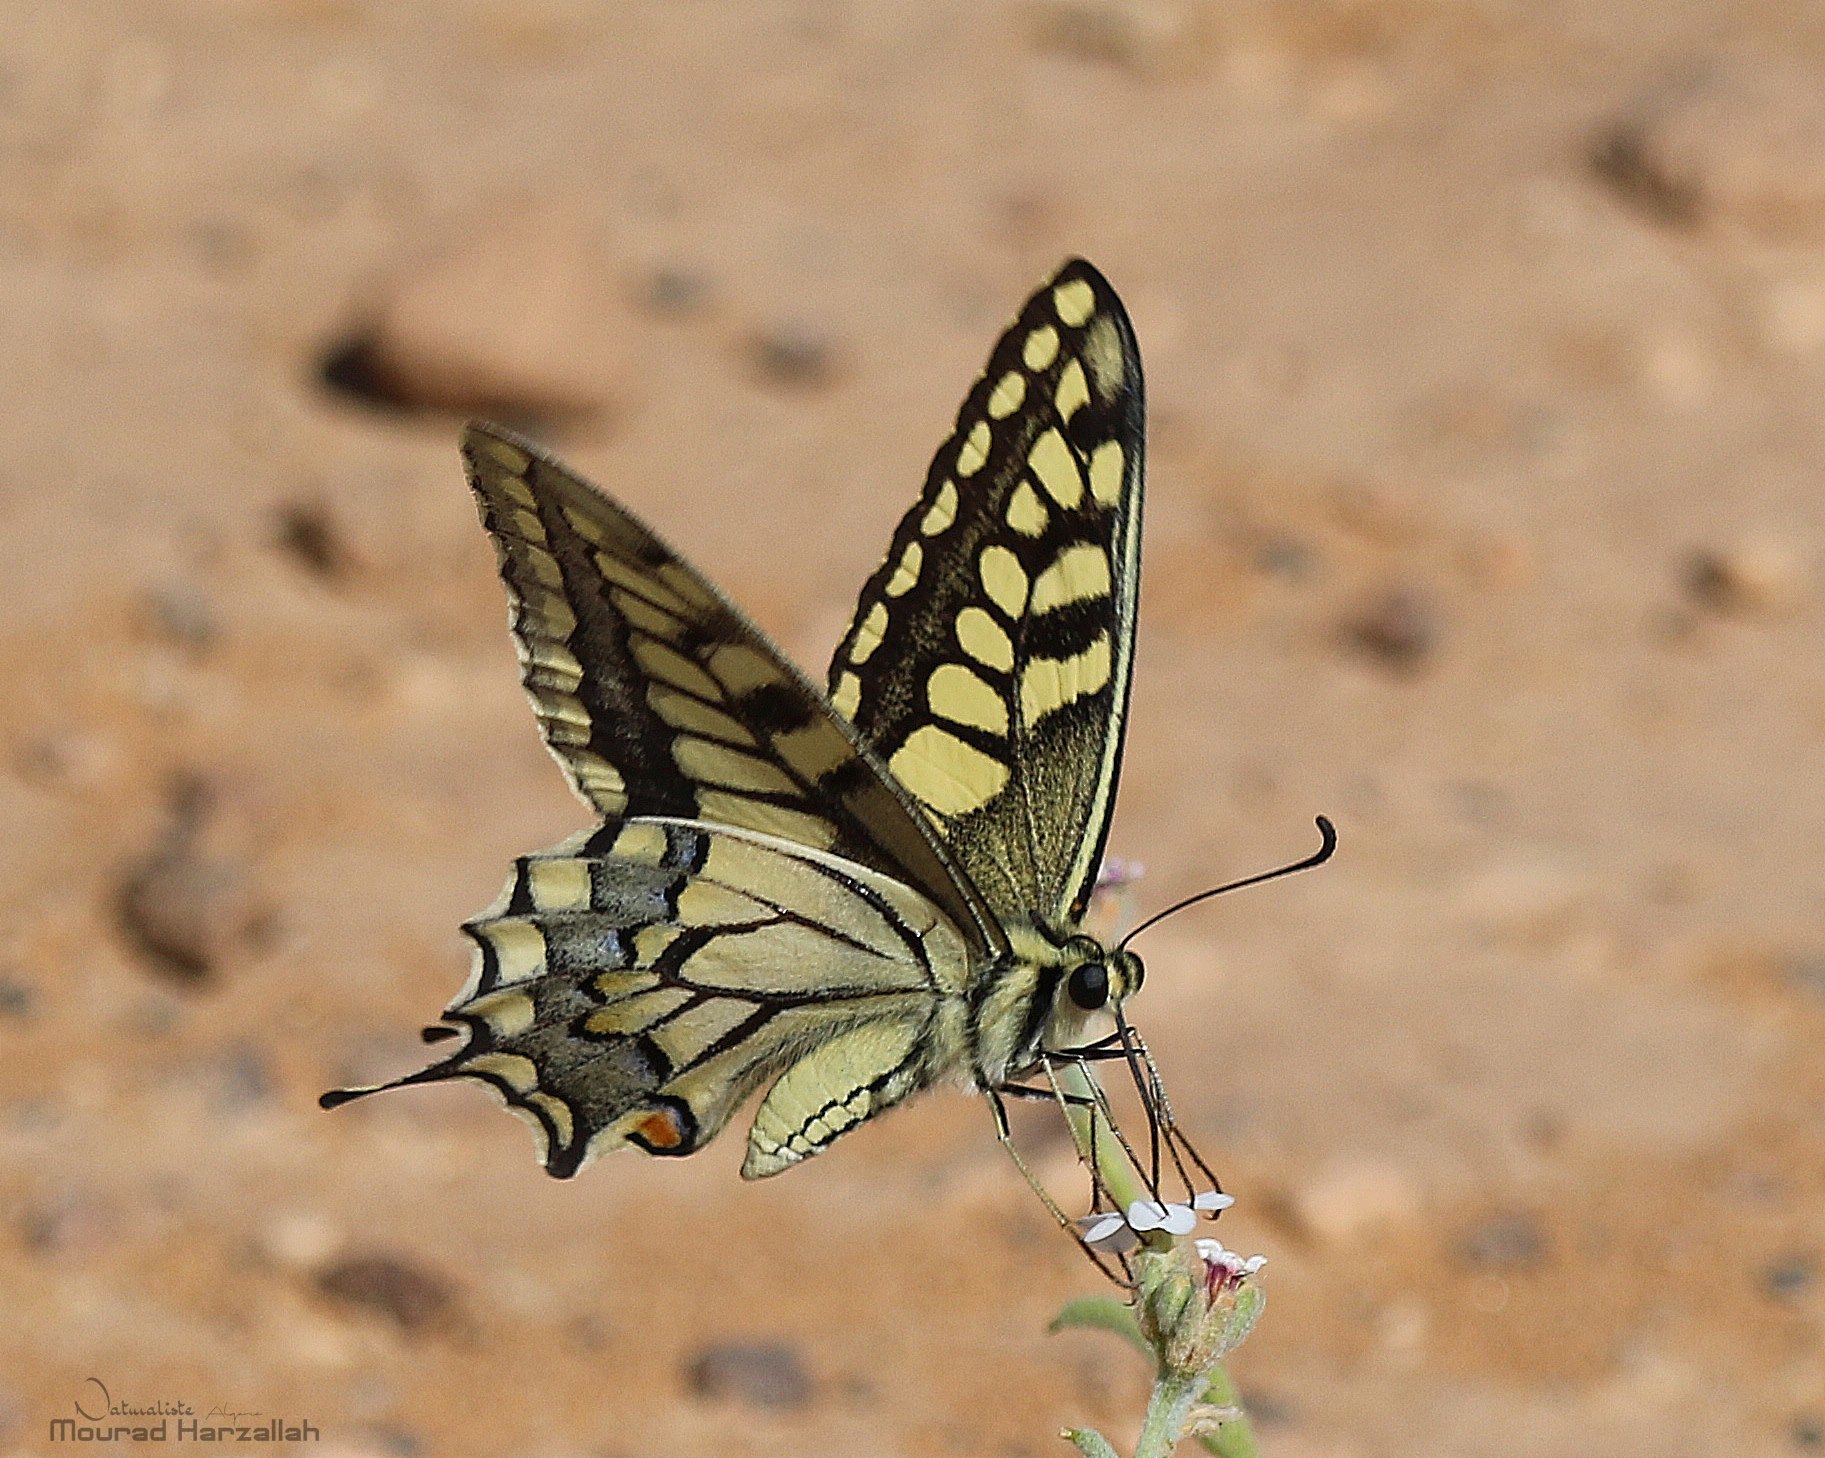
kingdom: Animalia
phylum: Arthropoda
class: Insecta
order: Lepidoptera
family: Papilionidae
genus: Papilio
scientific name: Papilio machaon
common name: Swallowtail
